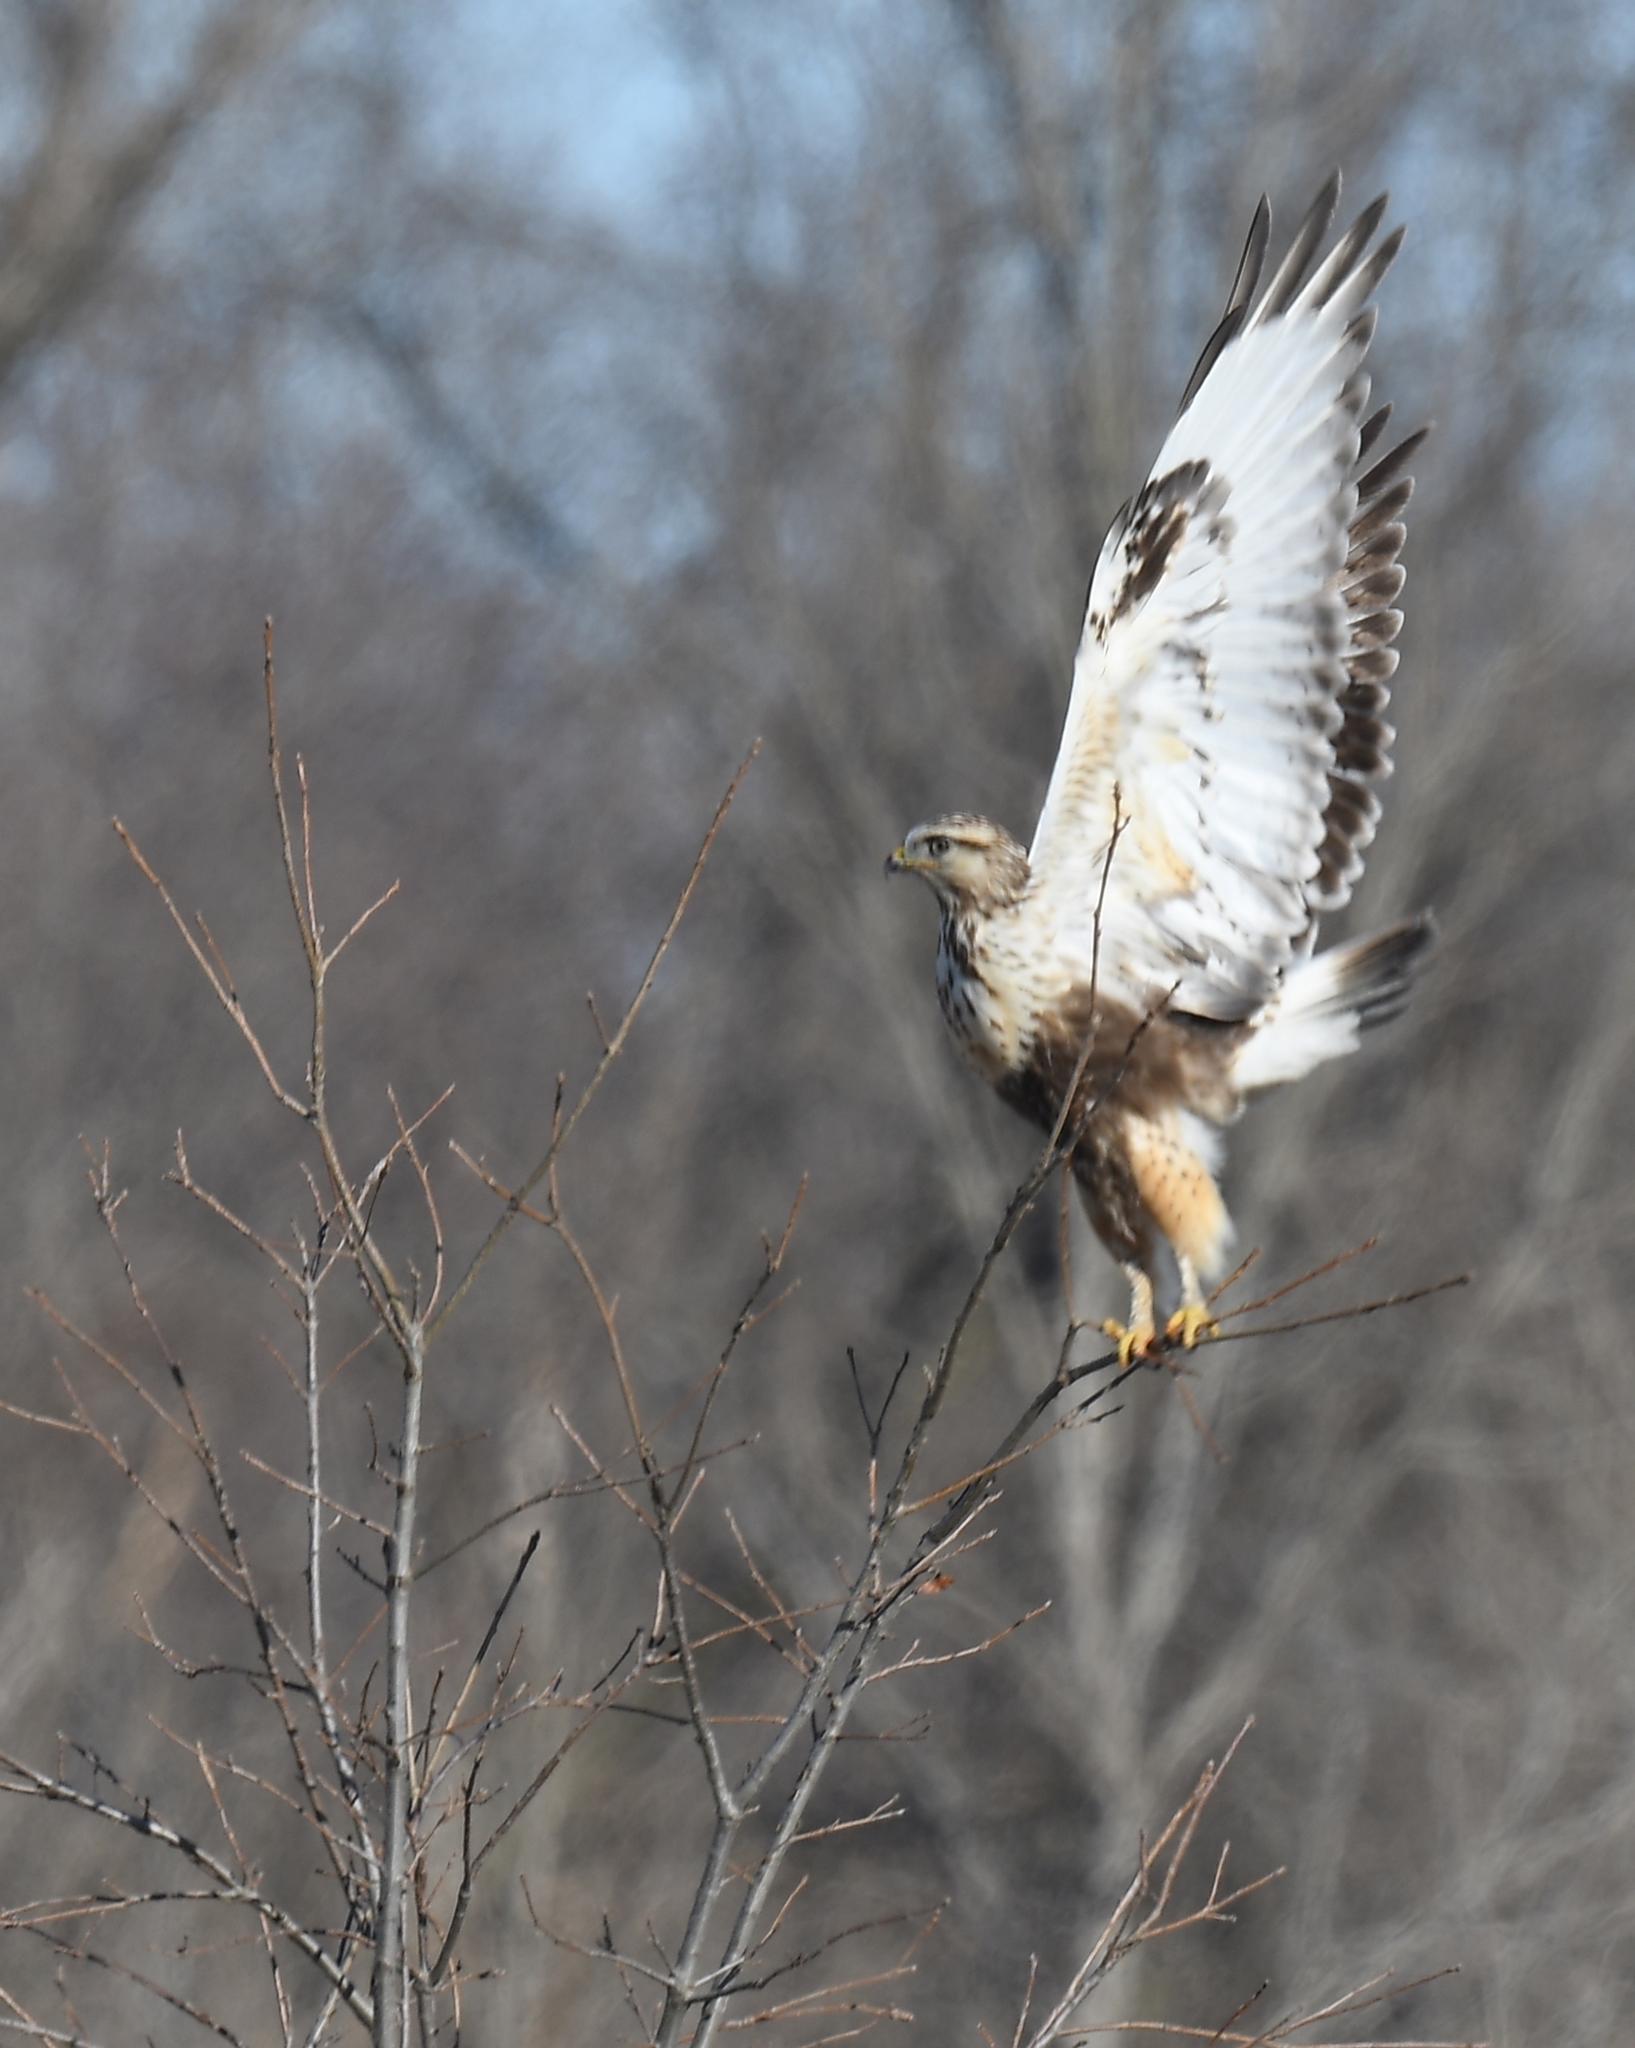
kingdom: Animalia
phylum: Chordata
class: Aves
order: Accipitriformes
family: Accipitridae
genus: Buteo
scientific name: Buteo lagopus
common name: Rough-legged buzzard
